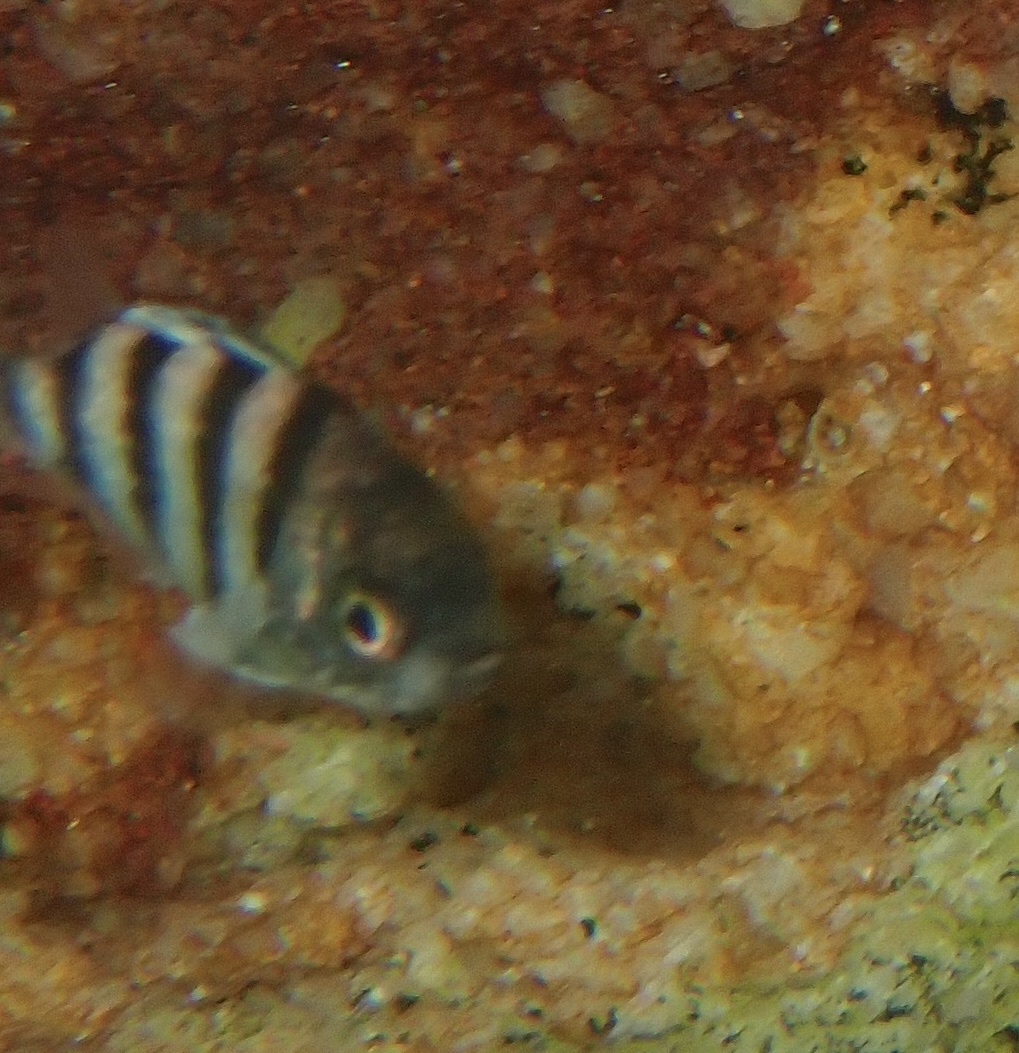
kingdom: Animalia
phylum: Chordata
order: Perciformes
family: Pomacentridae
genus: Abudefduf
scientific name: Abudefduf sexfasciatus
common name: Scissortail sergeant
